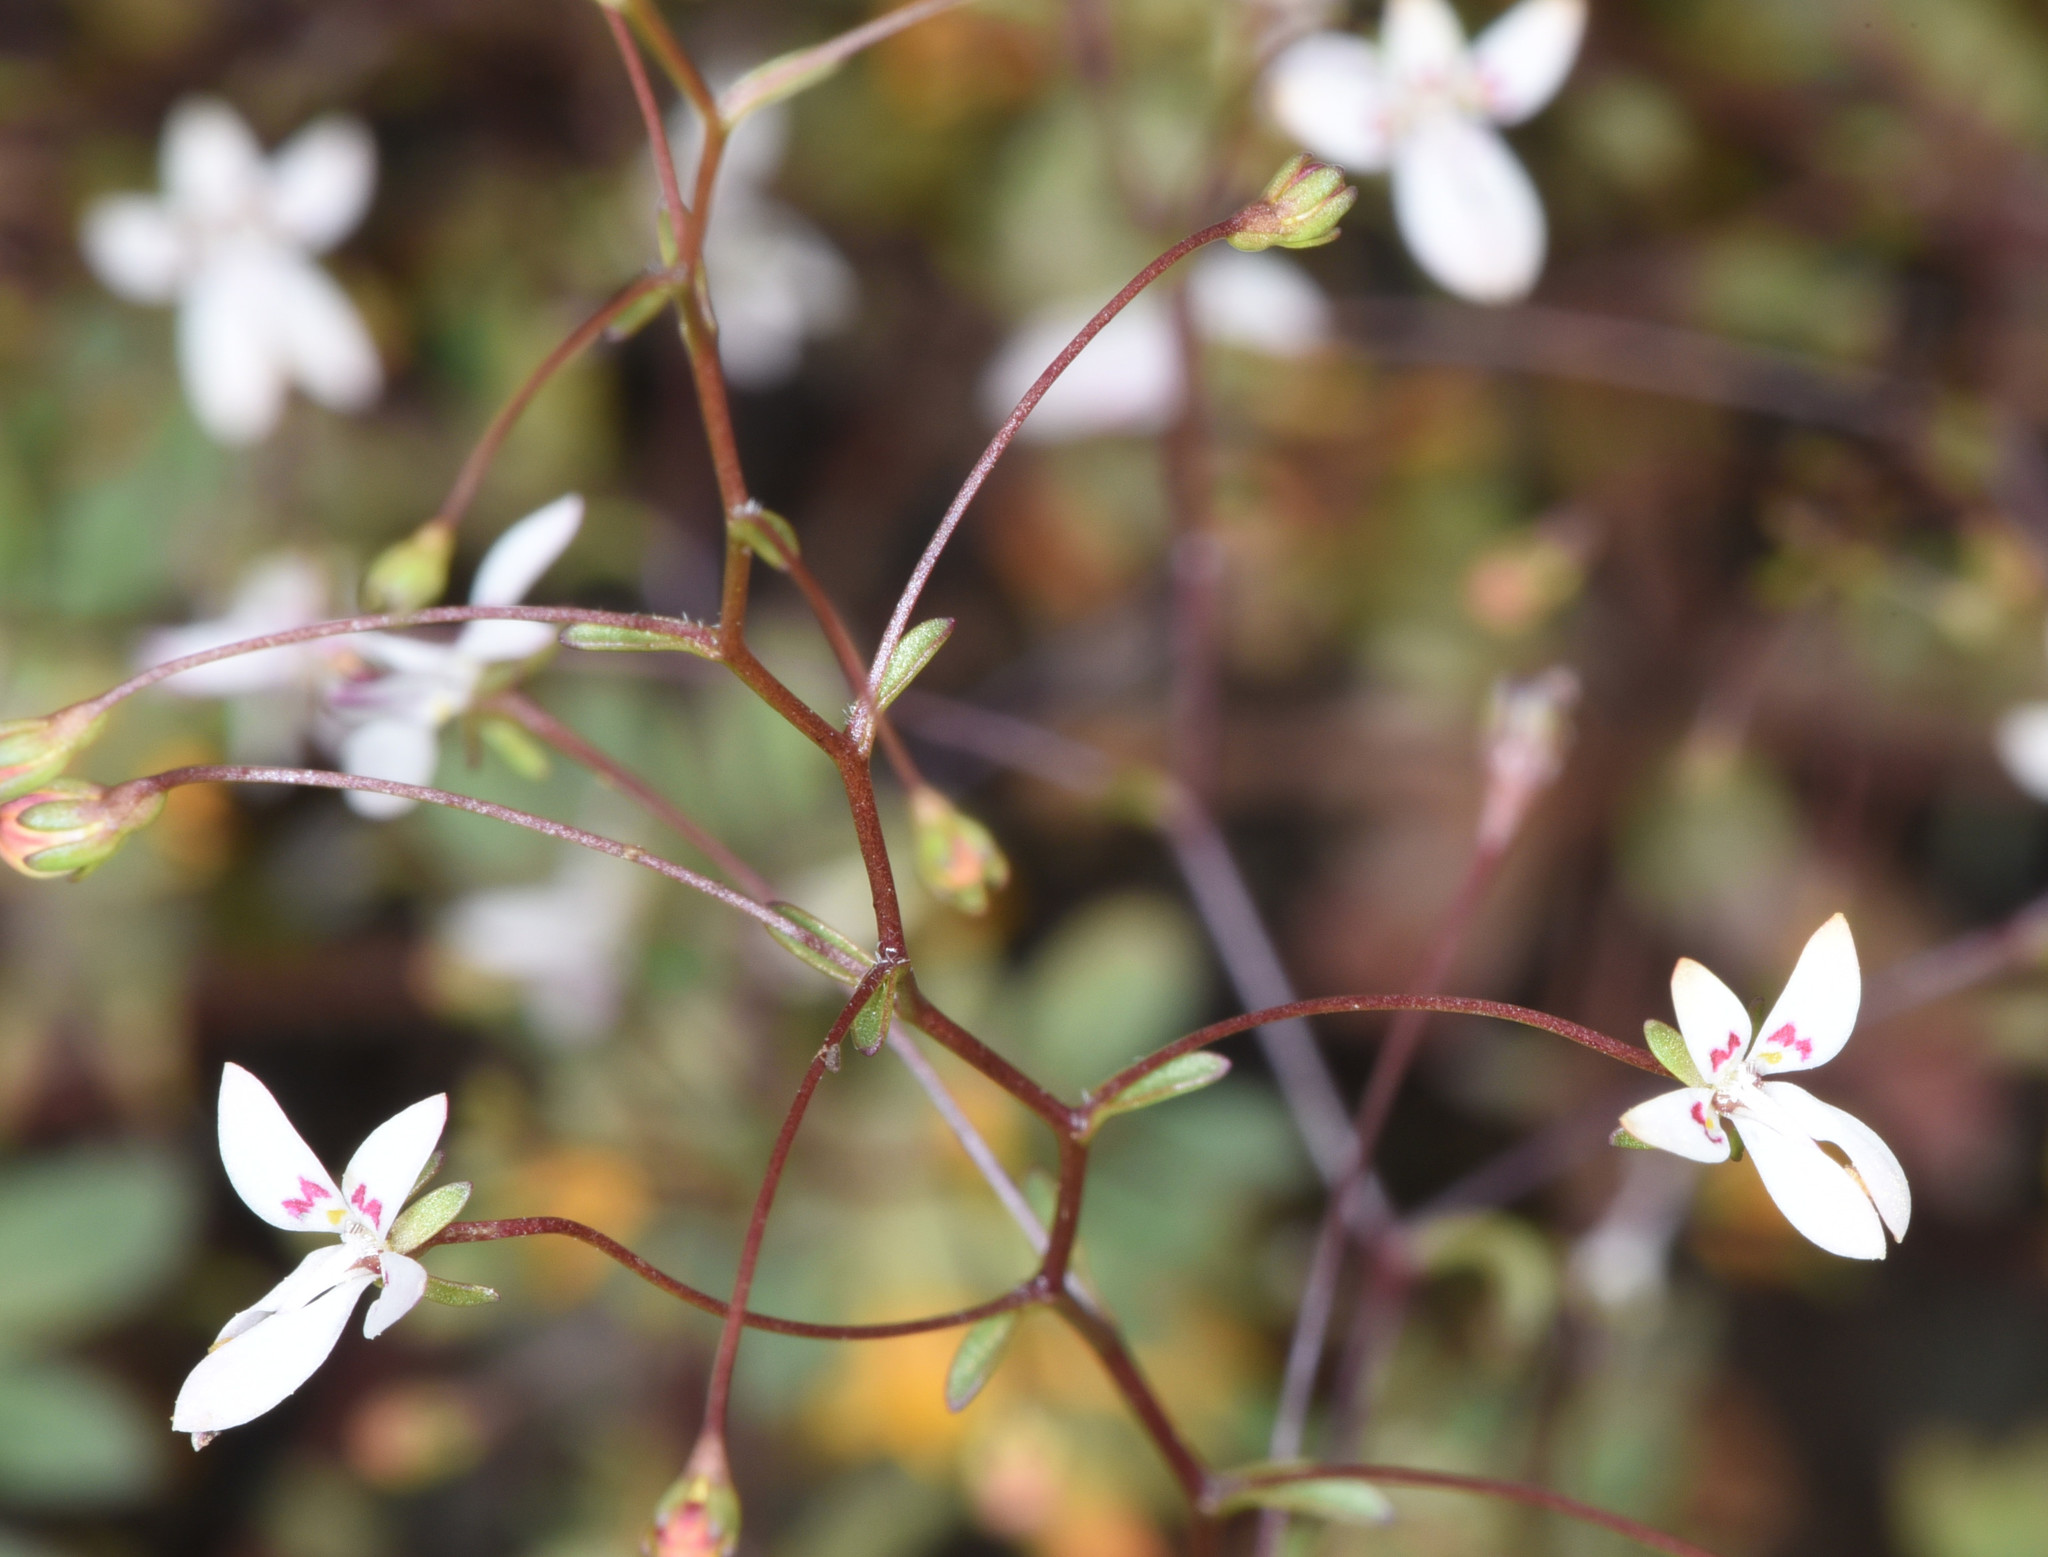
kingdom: Plantae
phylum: Tracheophyta
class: Magnoliopsida
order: Asterales
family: Campanulaceae
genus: Nemacladus
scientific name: Nemacladus montanus
